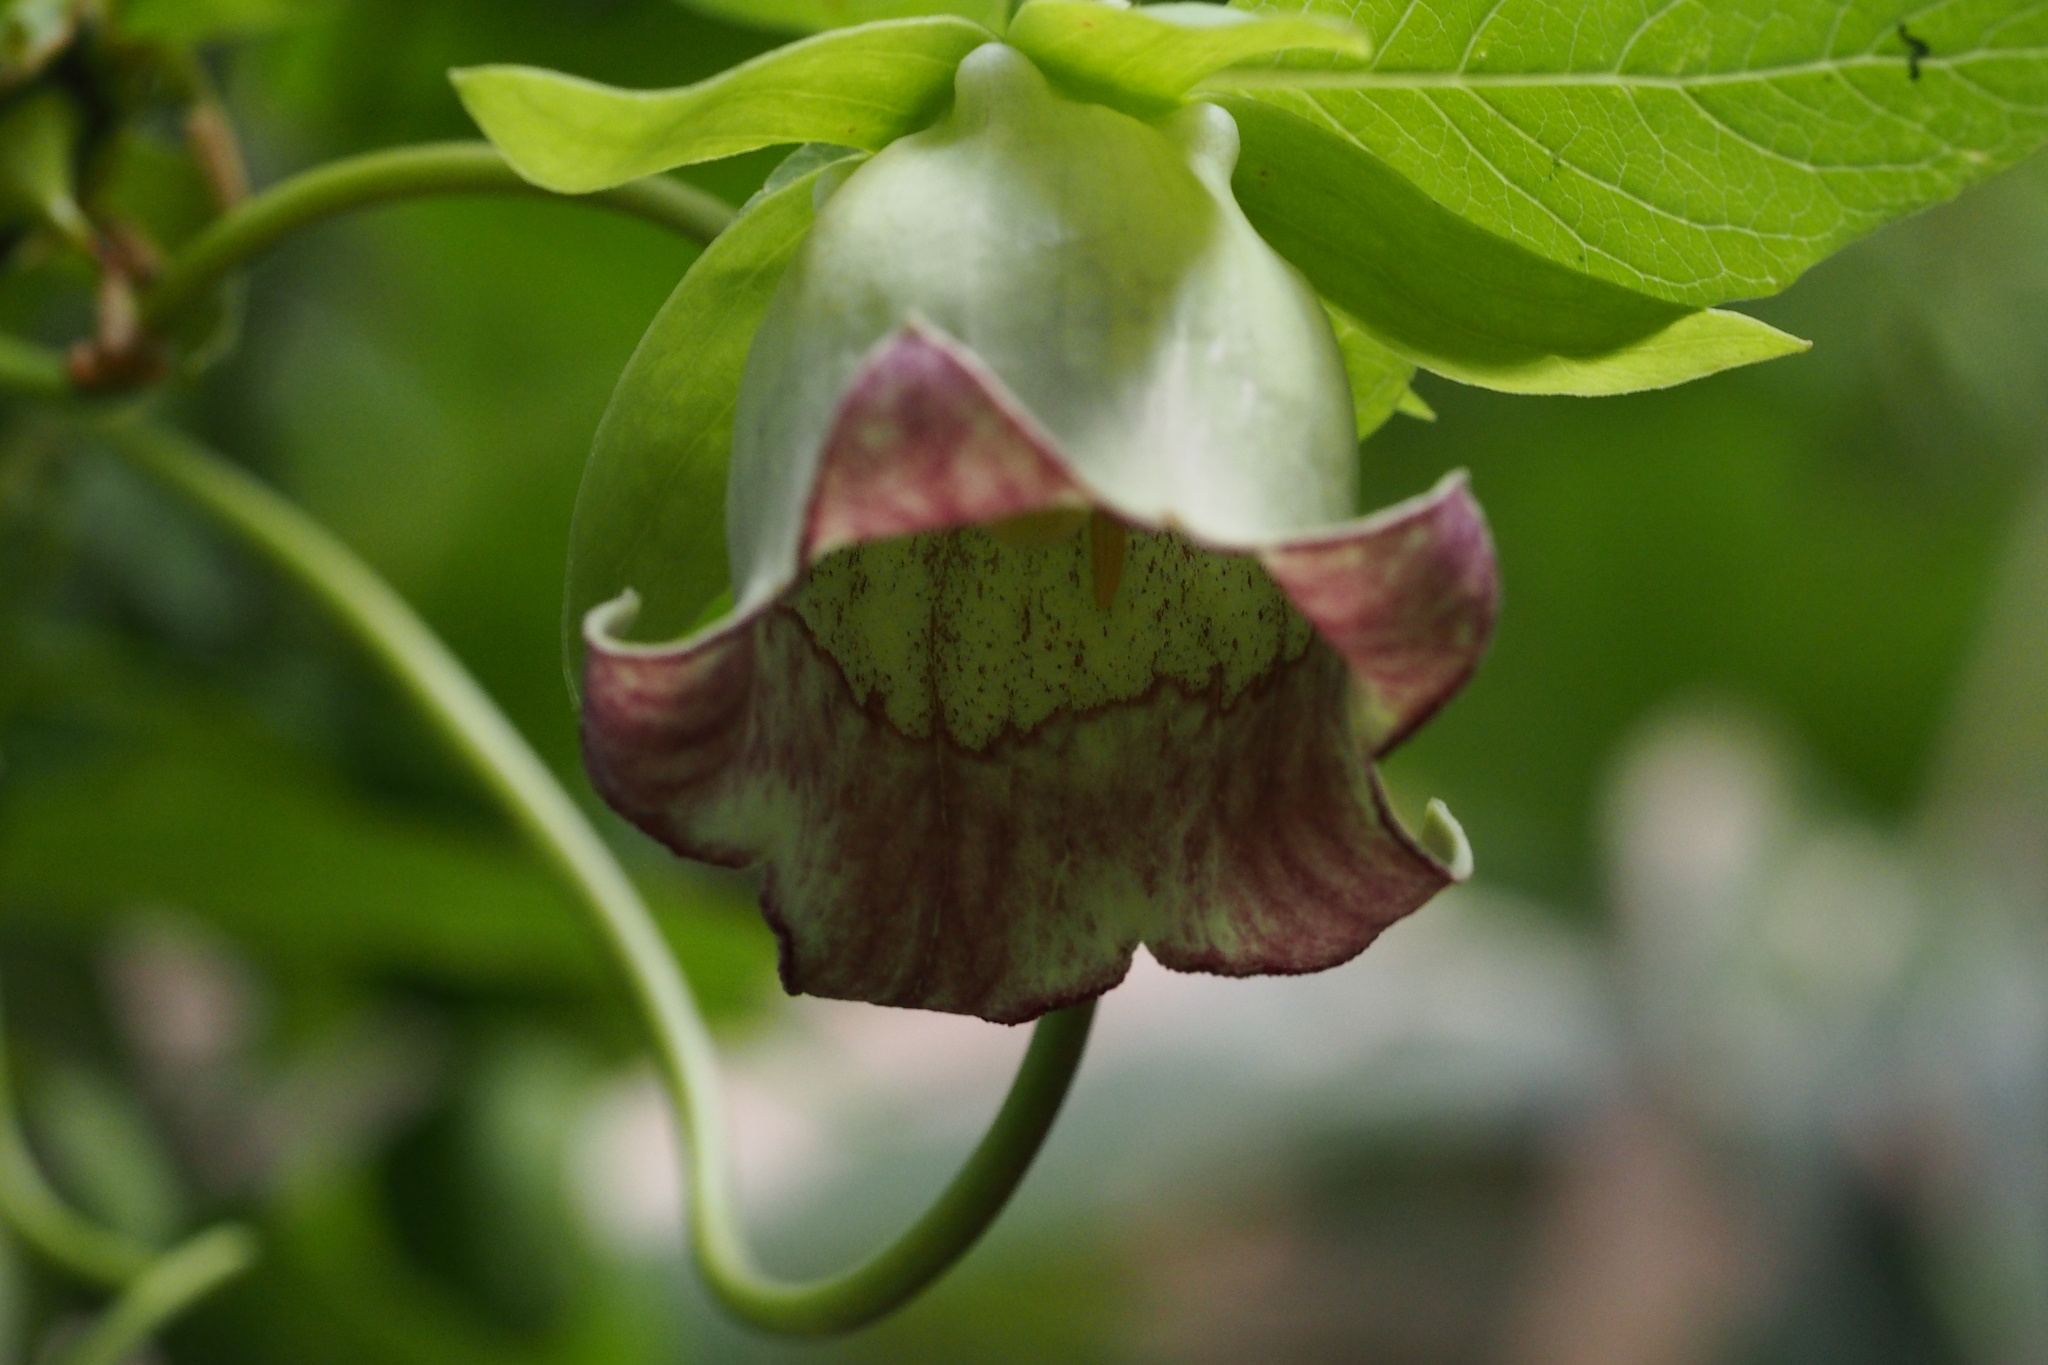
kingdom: Plantae
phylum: Tracheophyta
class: Magnoliopsida
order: Asterales
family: Campanulaceae
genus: Codonopsis
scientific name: Codonopsis lanceolata
